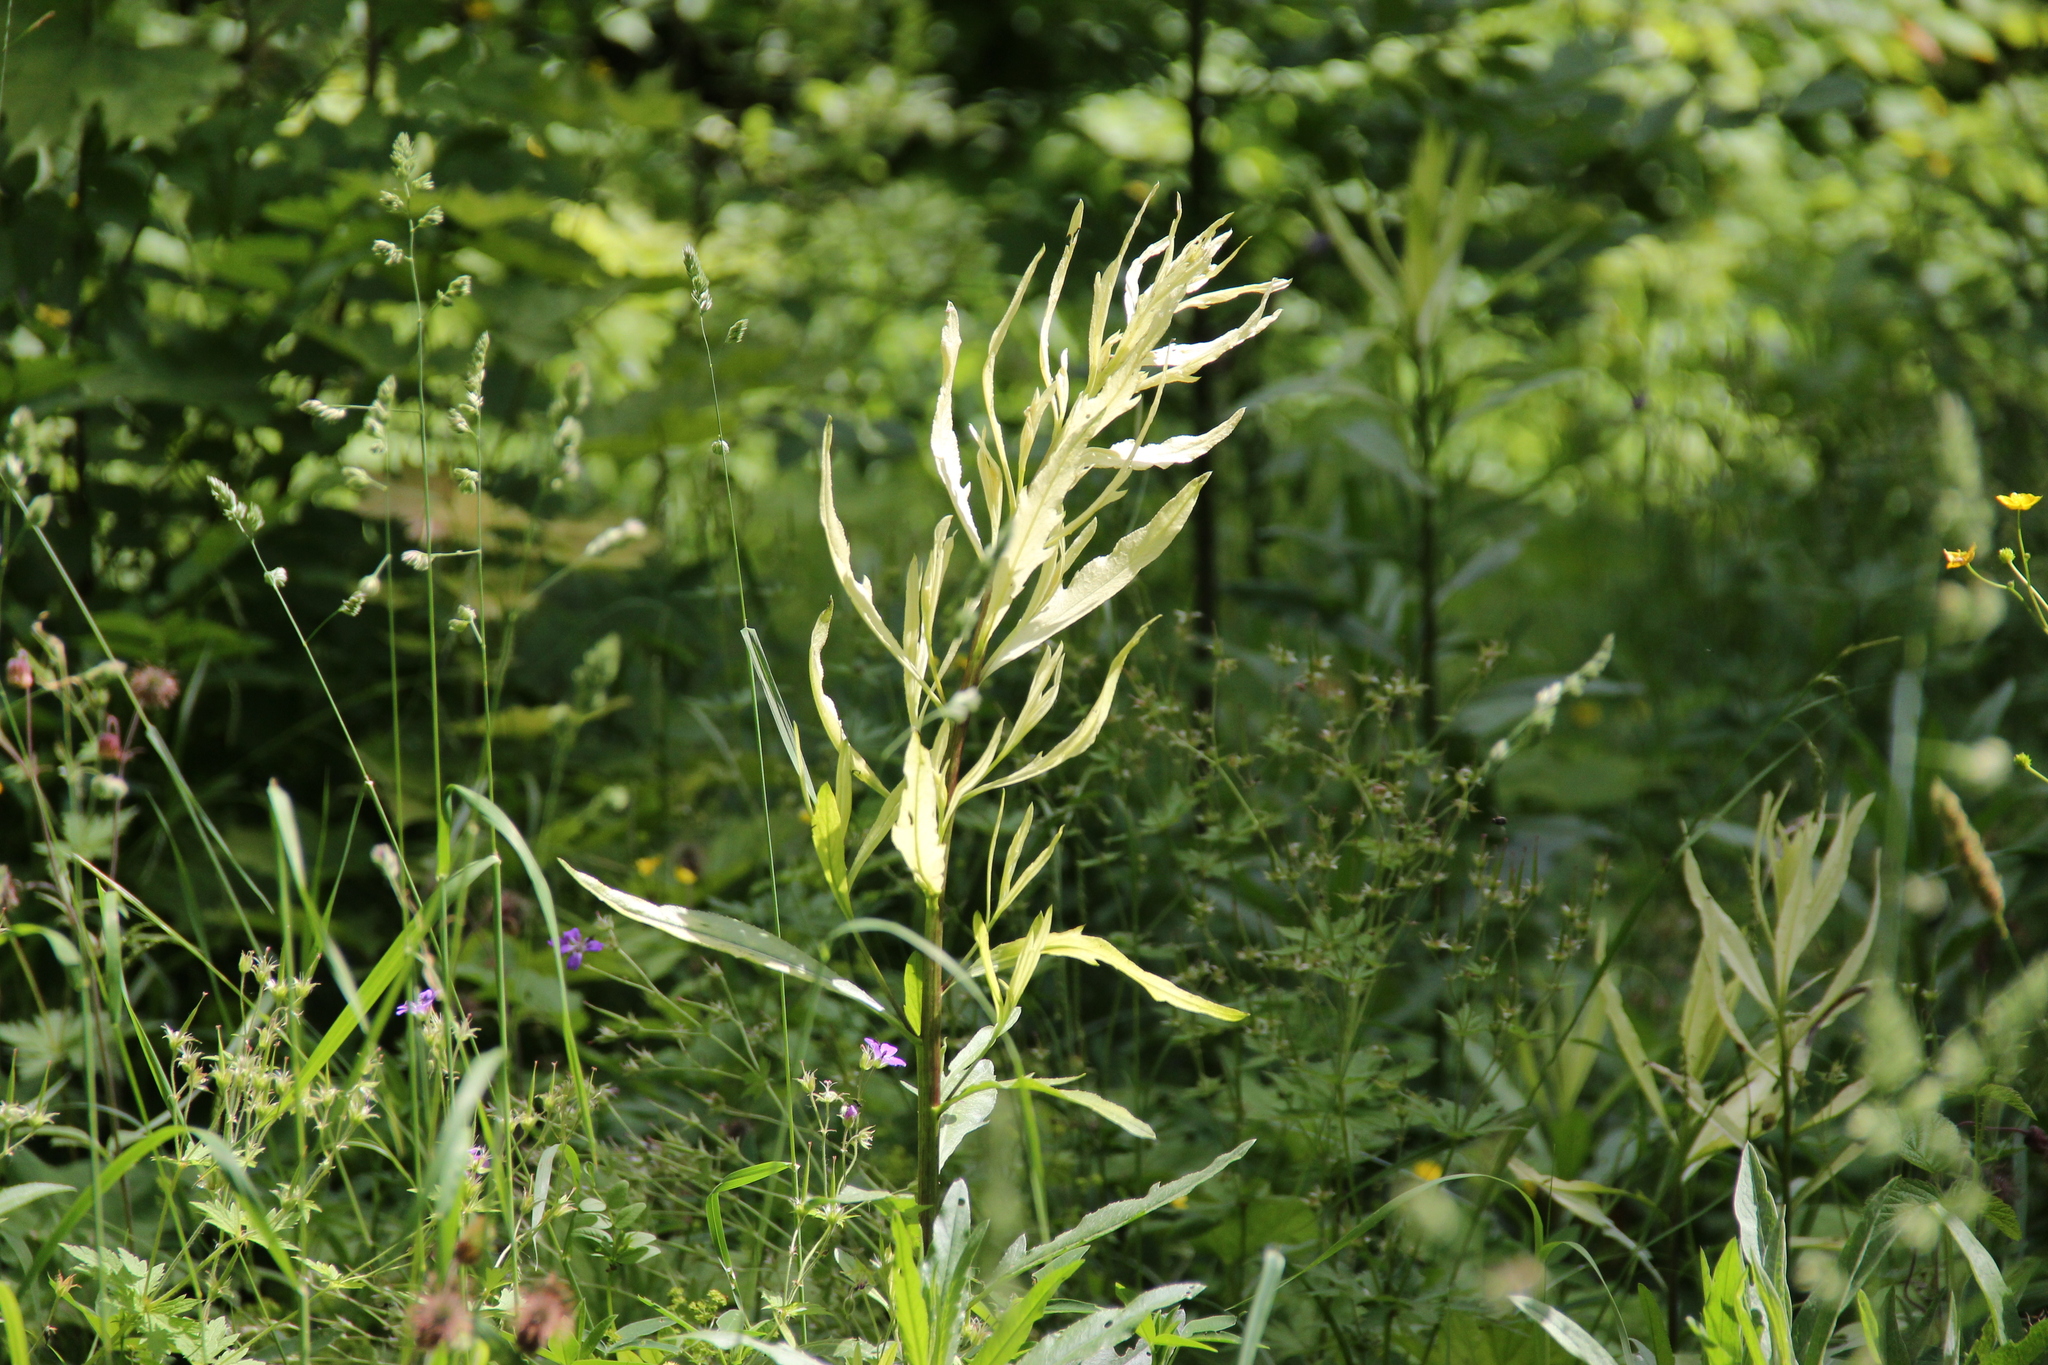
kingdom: Bacteria
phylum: Proteobacteria
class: Gammaproteobacteria
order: Pseudomonadales
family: Pseudomonadaceae
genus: Pseudomonas
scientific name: Pseudomonas syringae
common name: Bacterial speck
